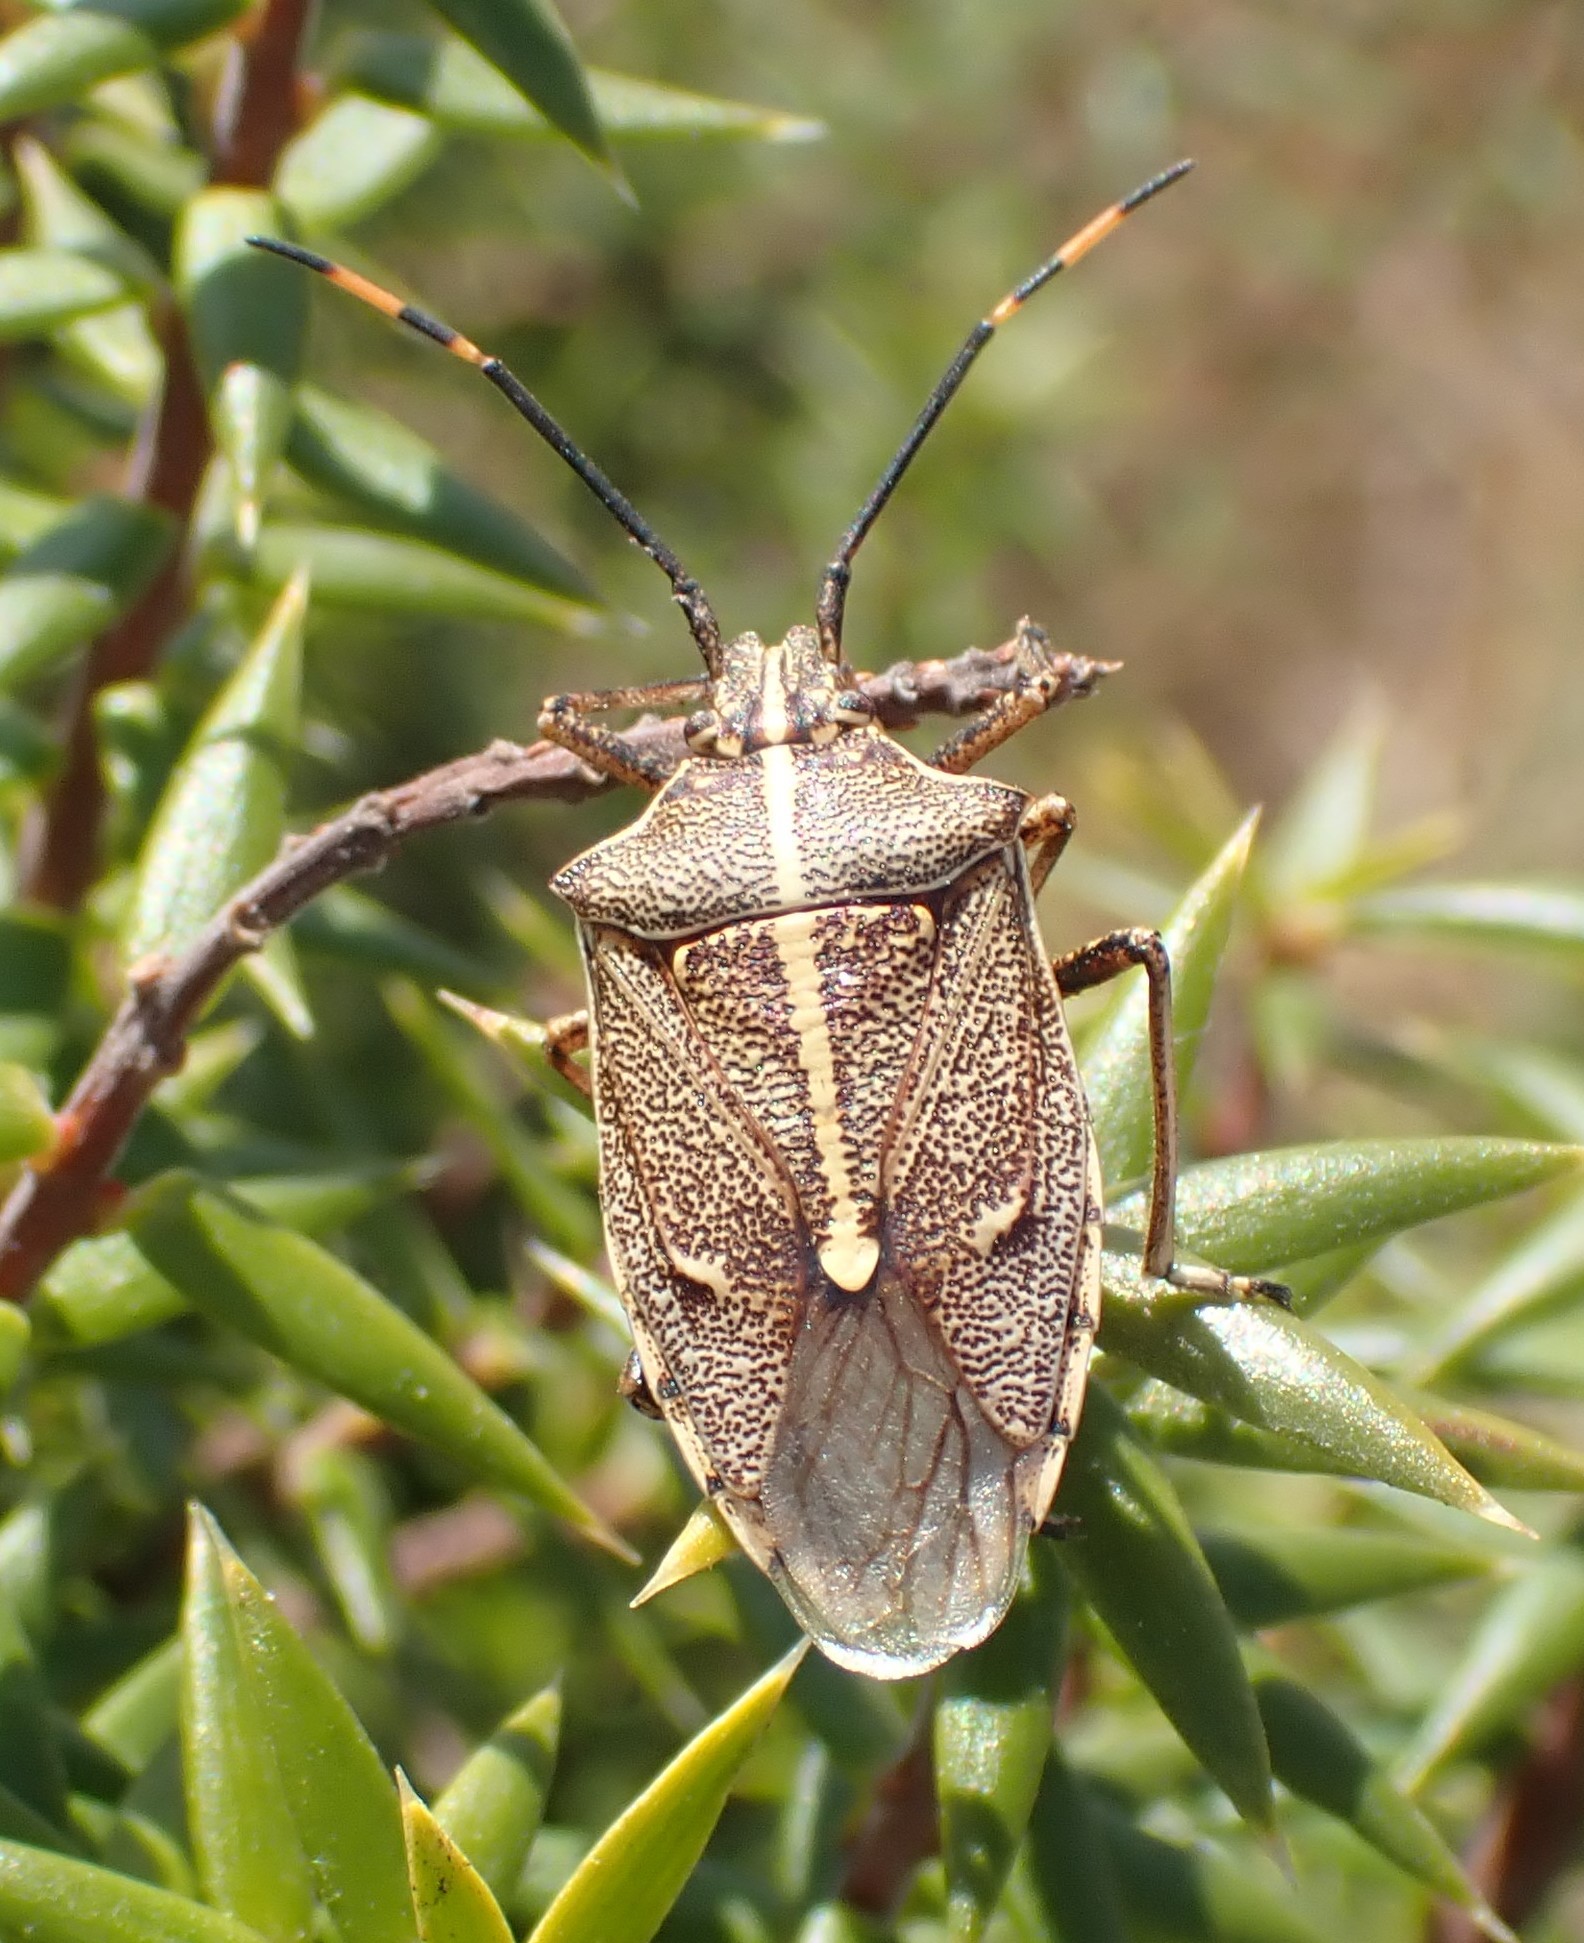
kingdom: Animalia
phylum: Arthropoda
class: Insecta
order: Hemiptera
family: Pentatomidae
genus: Omyta
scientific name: Omyta centrolineata
